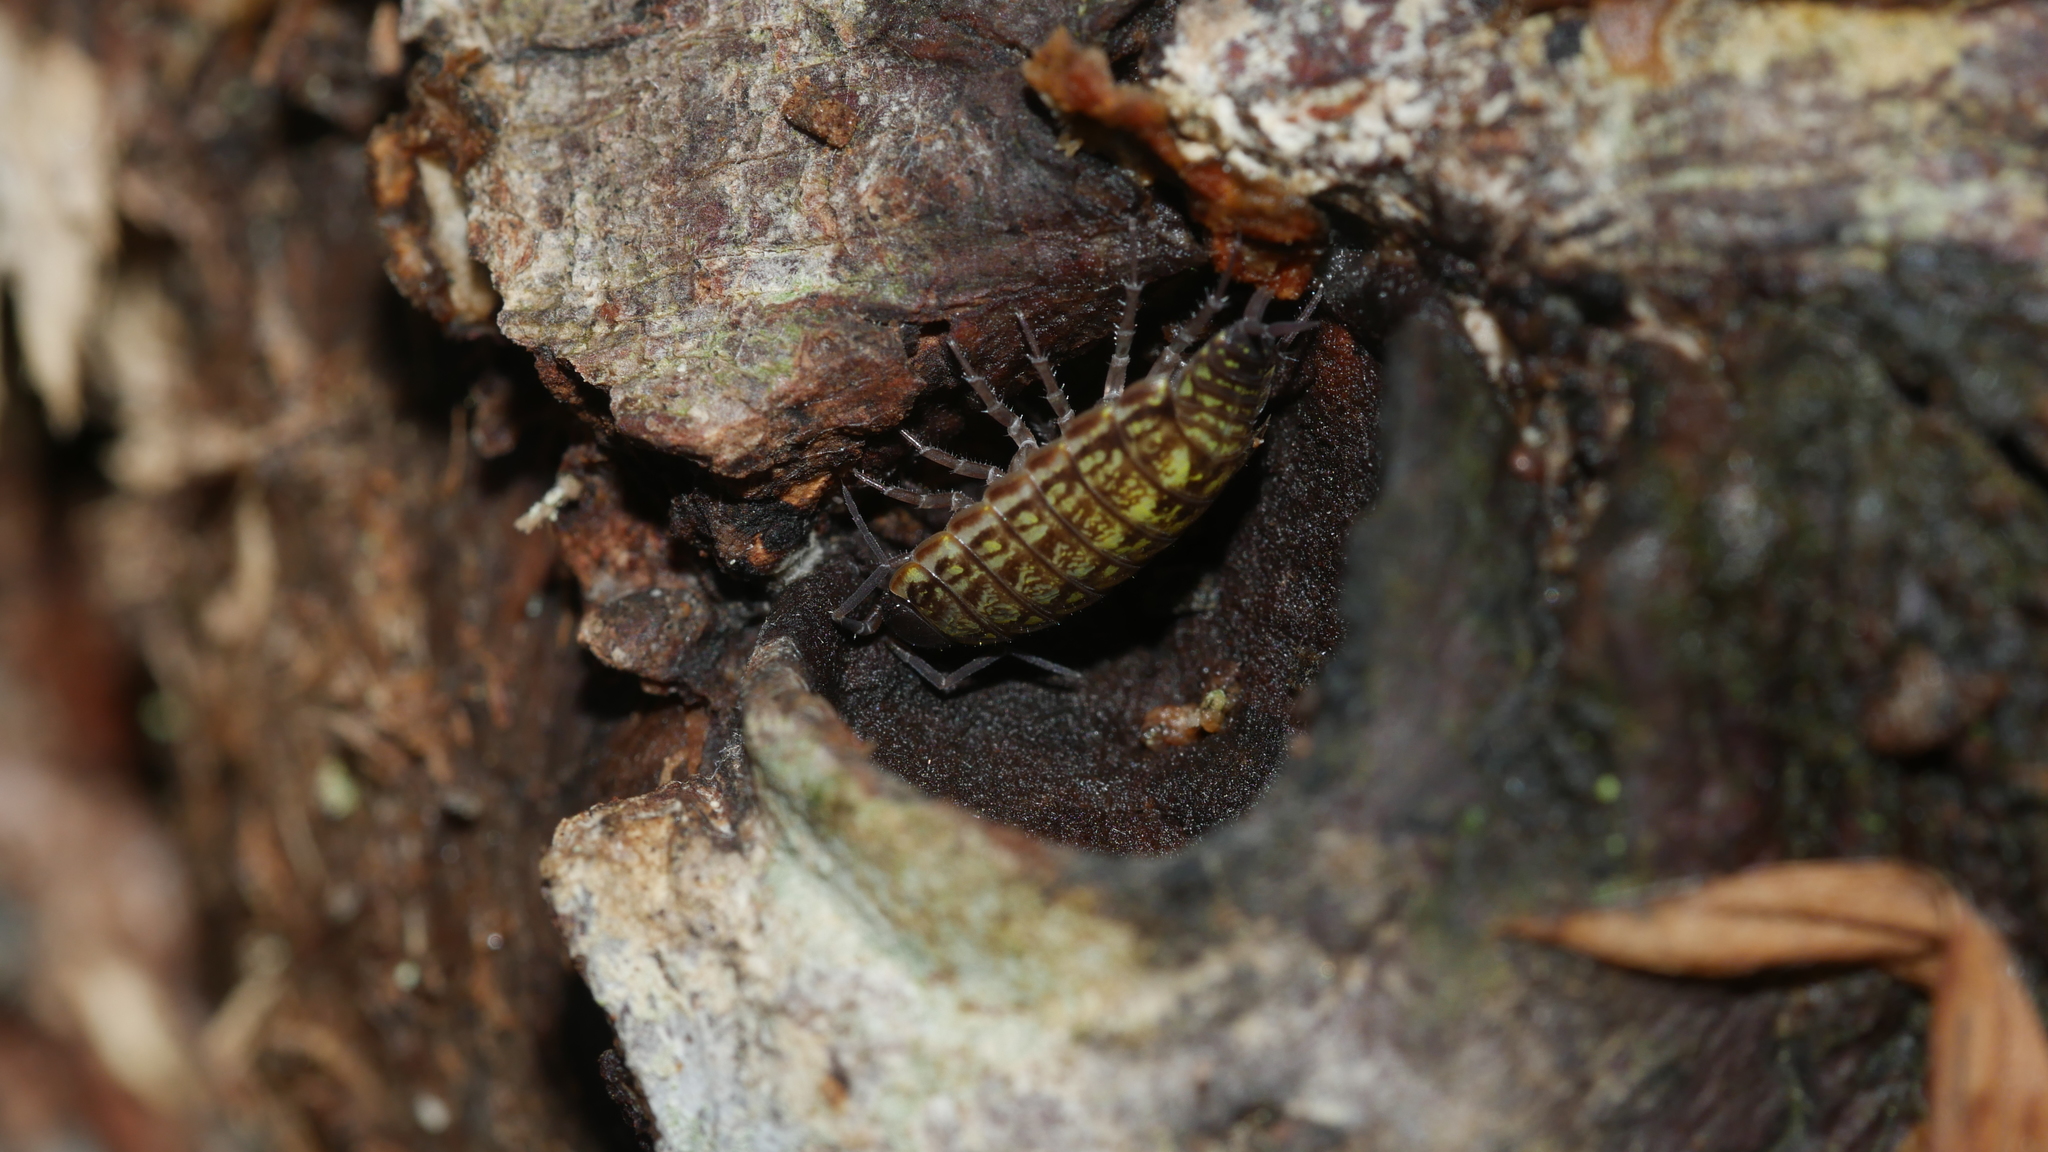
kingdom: Animalia
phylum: Arthropoda
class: Malacostraca
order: Isopoda
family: Philosciidae
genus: Philoscia
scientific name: Philoscia muscorum
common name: Common striped woodlouse
